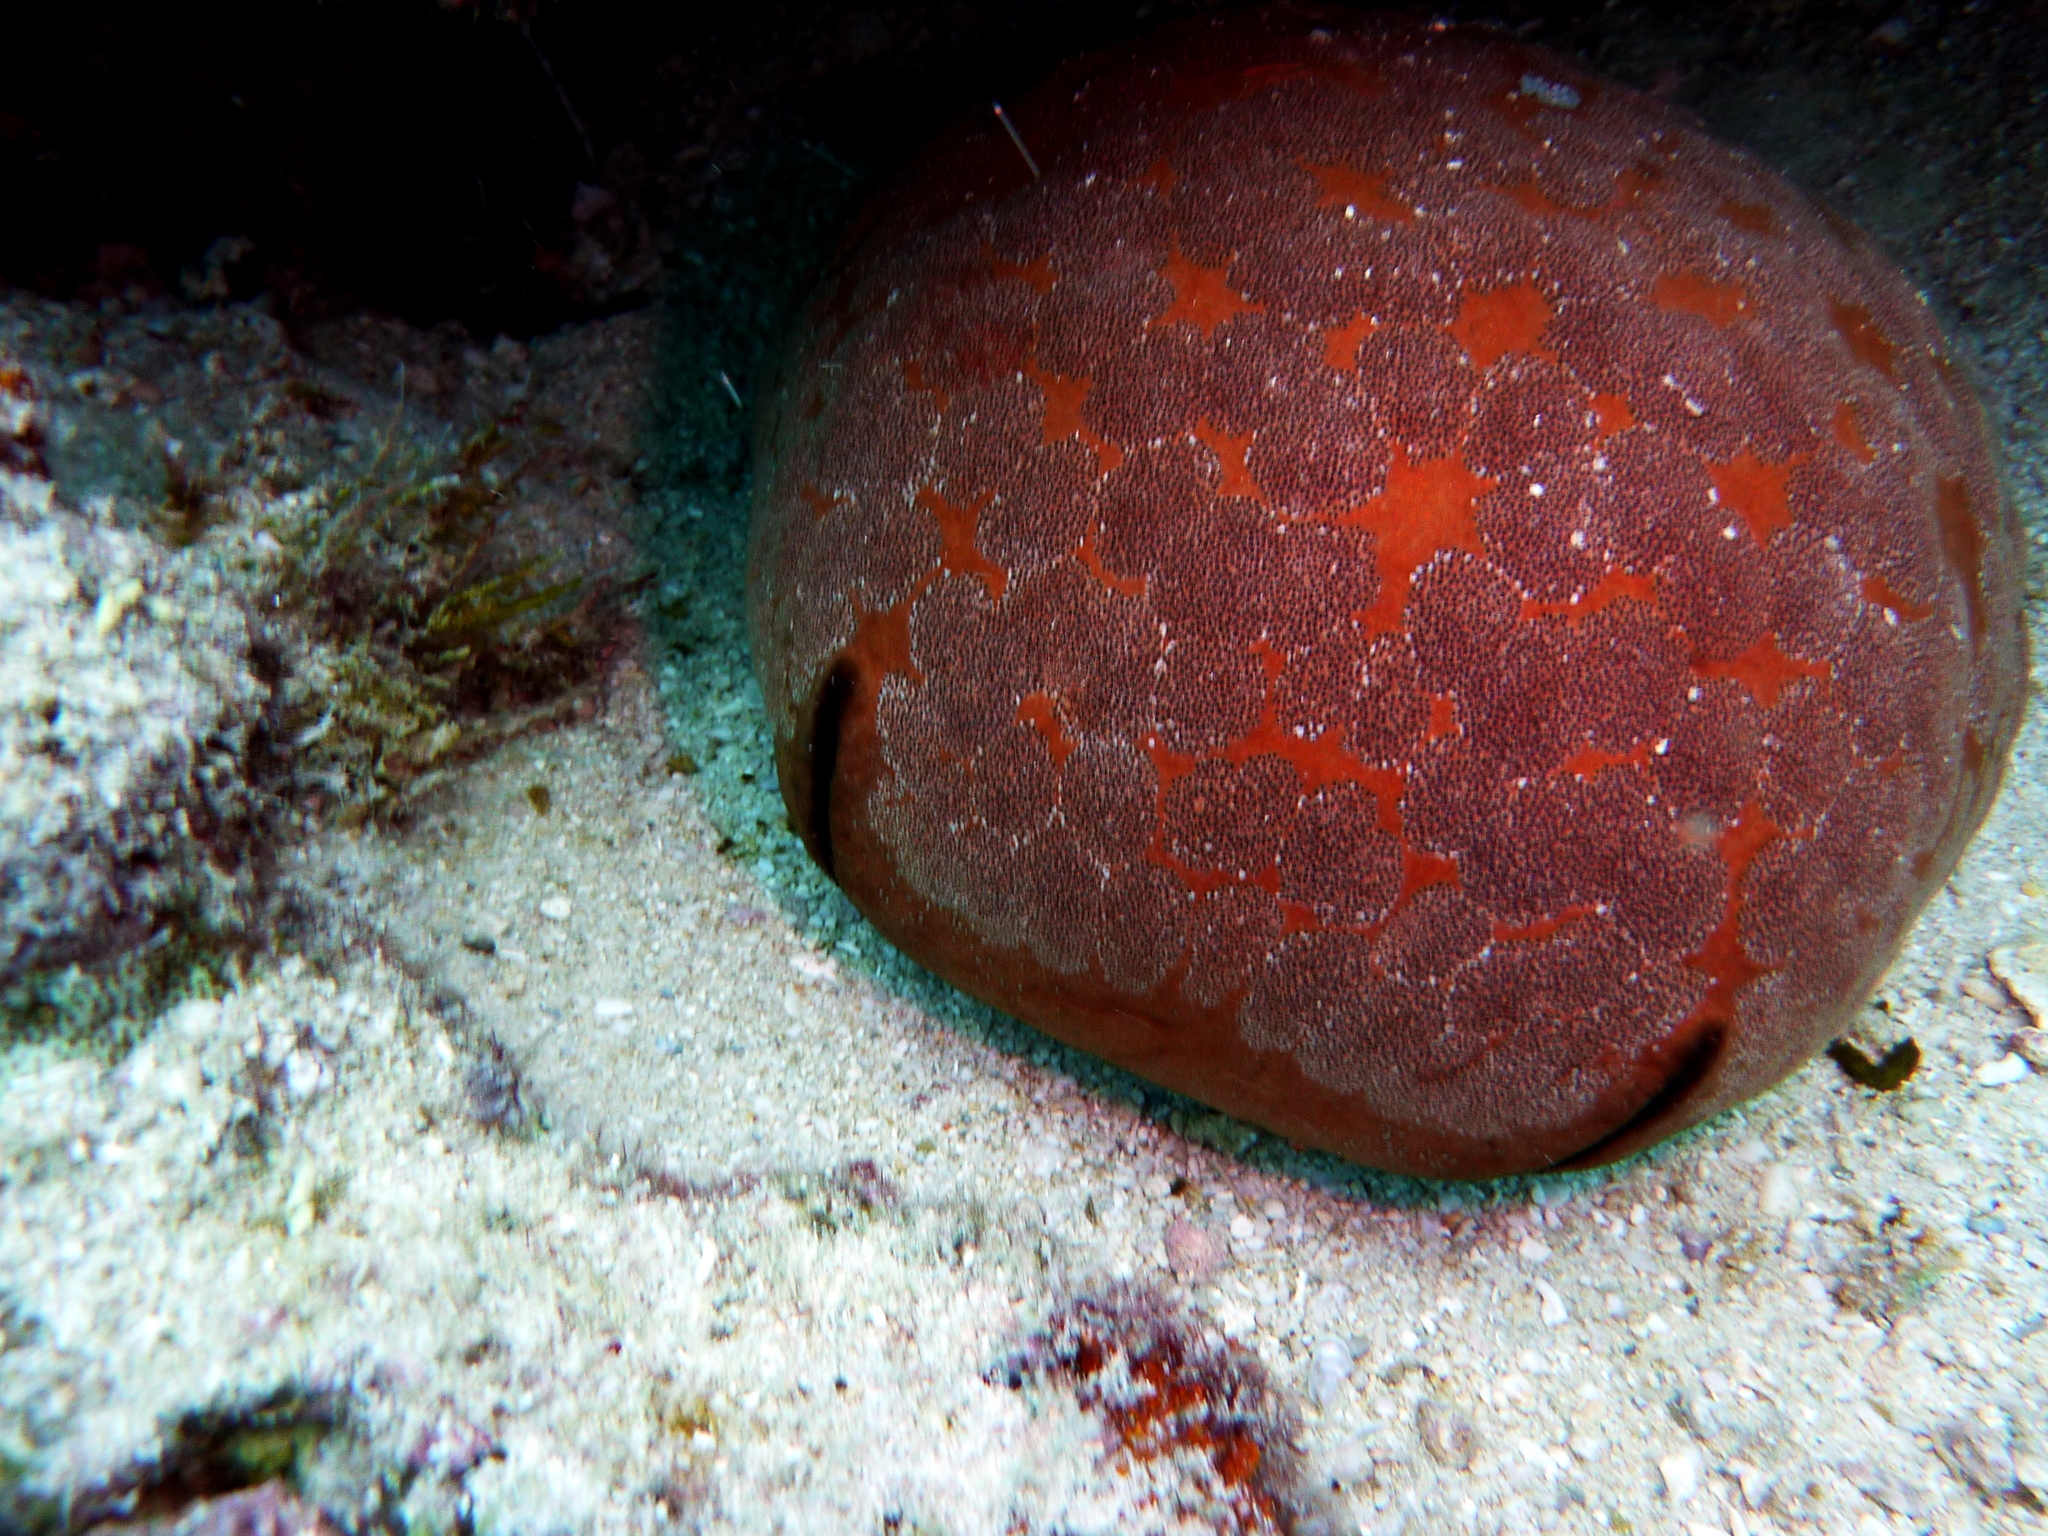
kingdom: Animalia
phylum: Echinodermata
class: Asteroidea
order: Valvatida
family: Oreasteridae
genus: Culcita
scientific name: Culcita novaeguineae
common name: Cushion star
